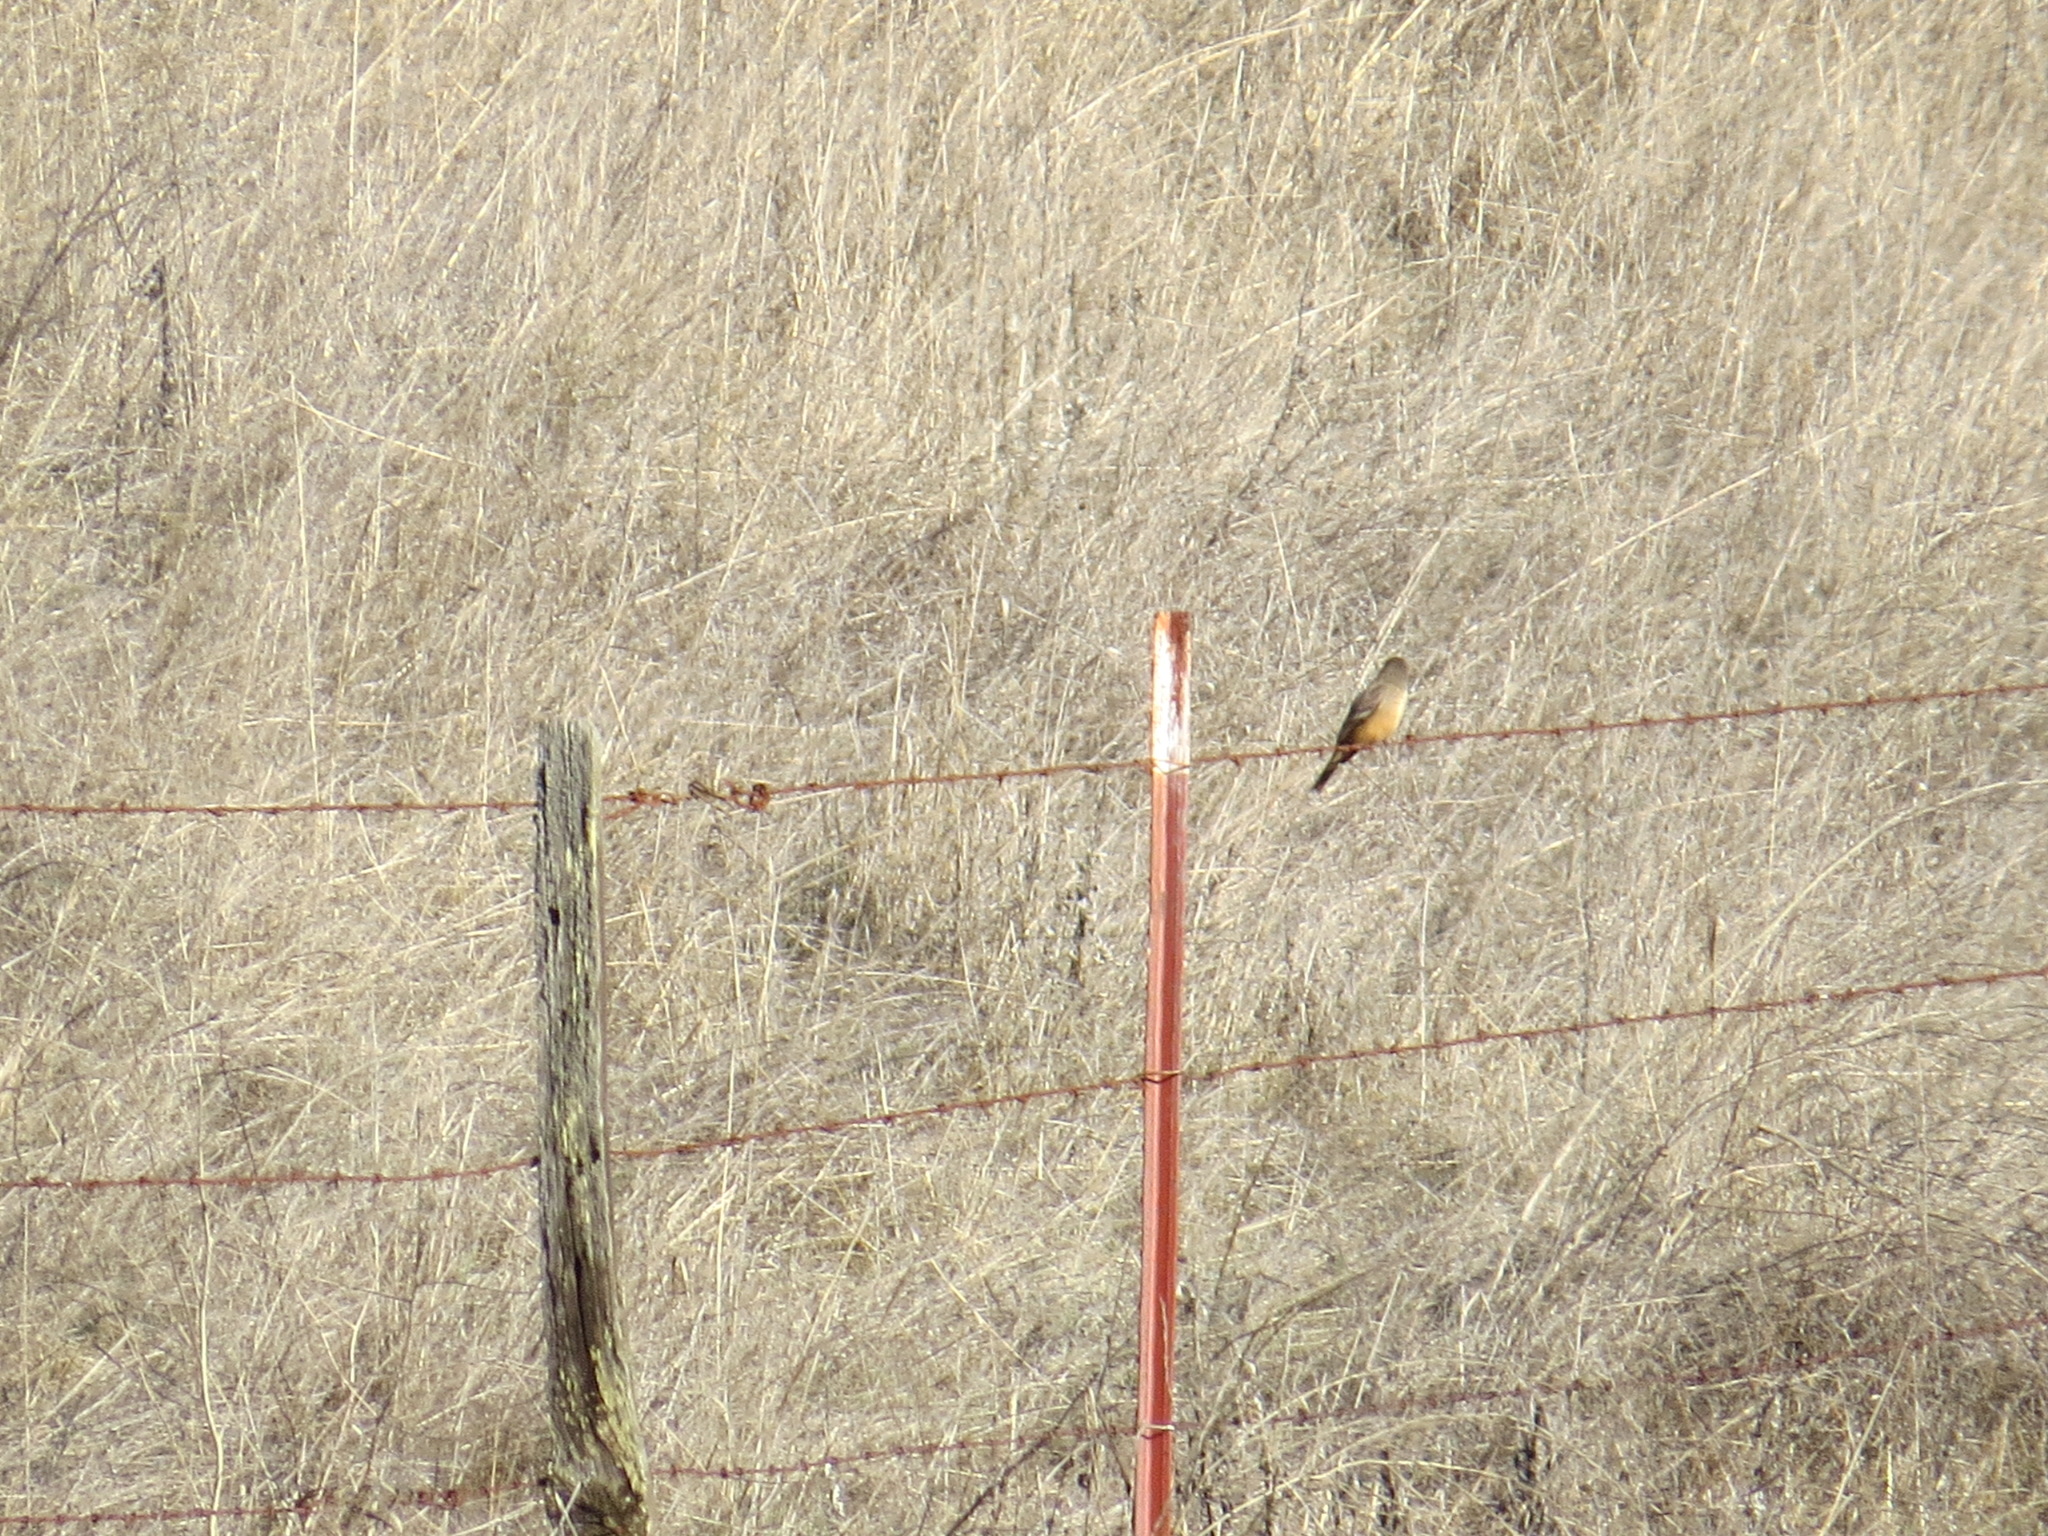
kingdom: Animalia
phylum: Chordata
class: Aves
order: Passeriformes
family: Tyrannidae
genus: Sayornis
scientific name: Sayornis saya
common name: Say's phoebe
